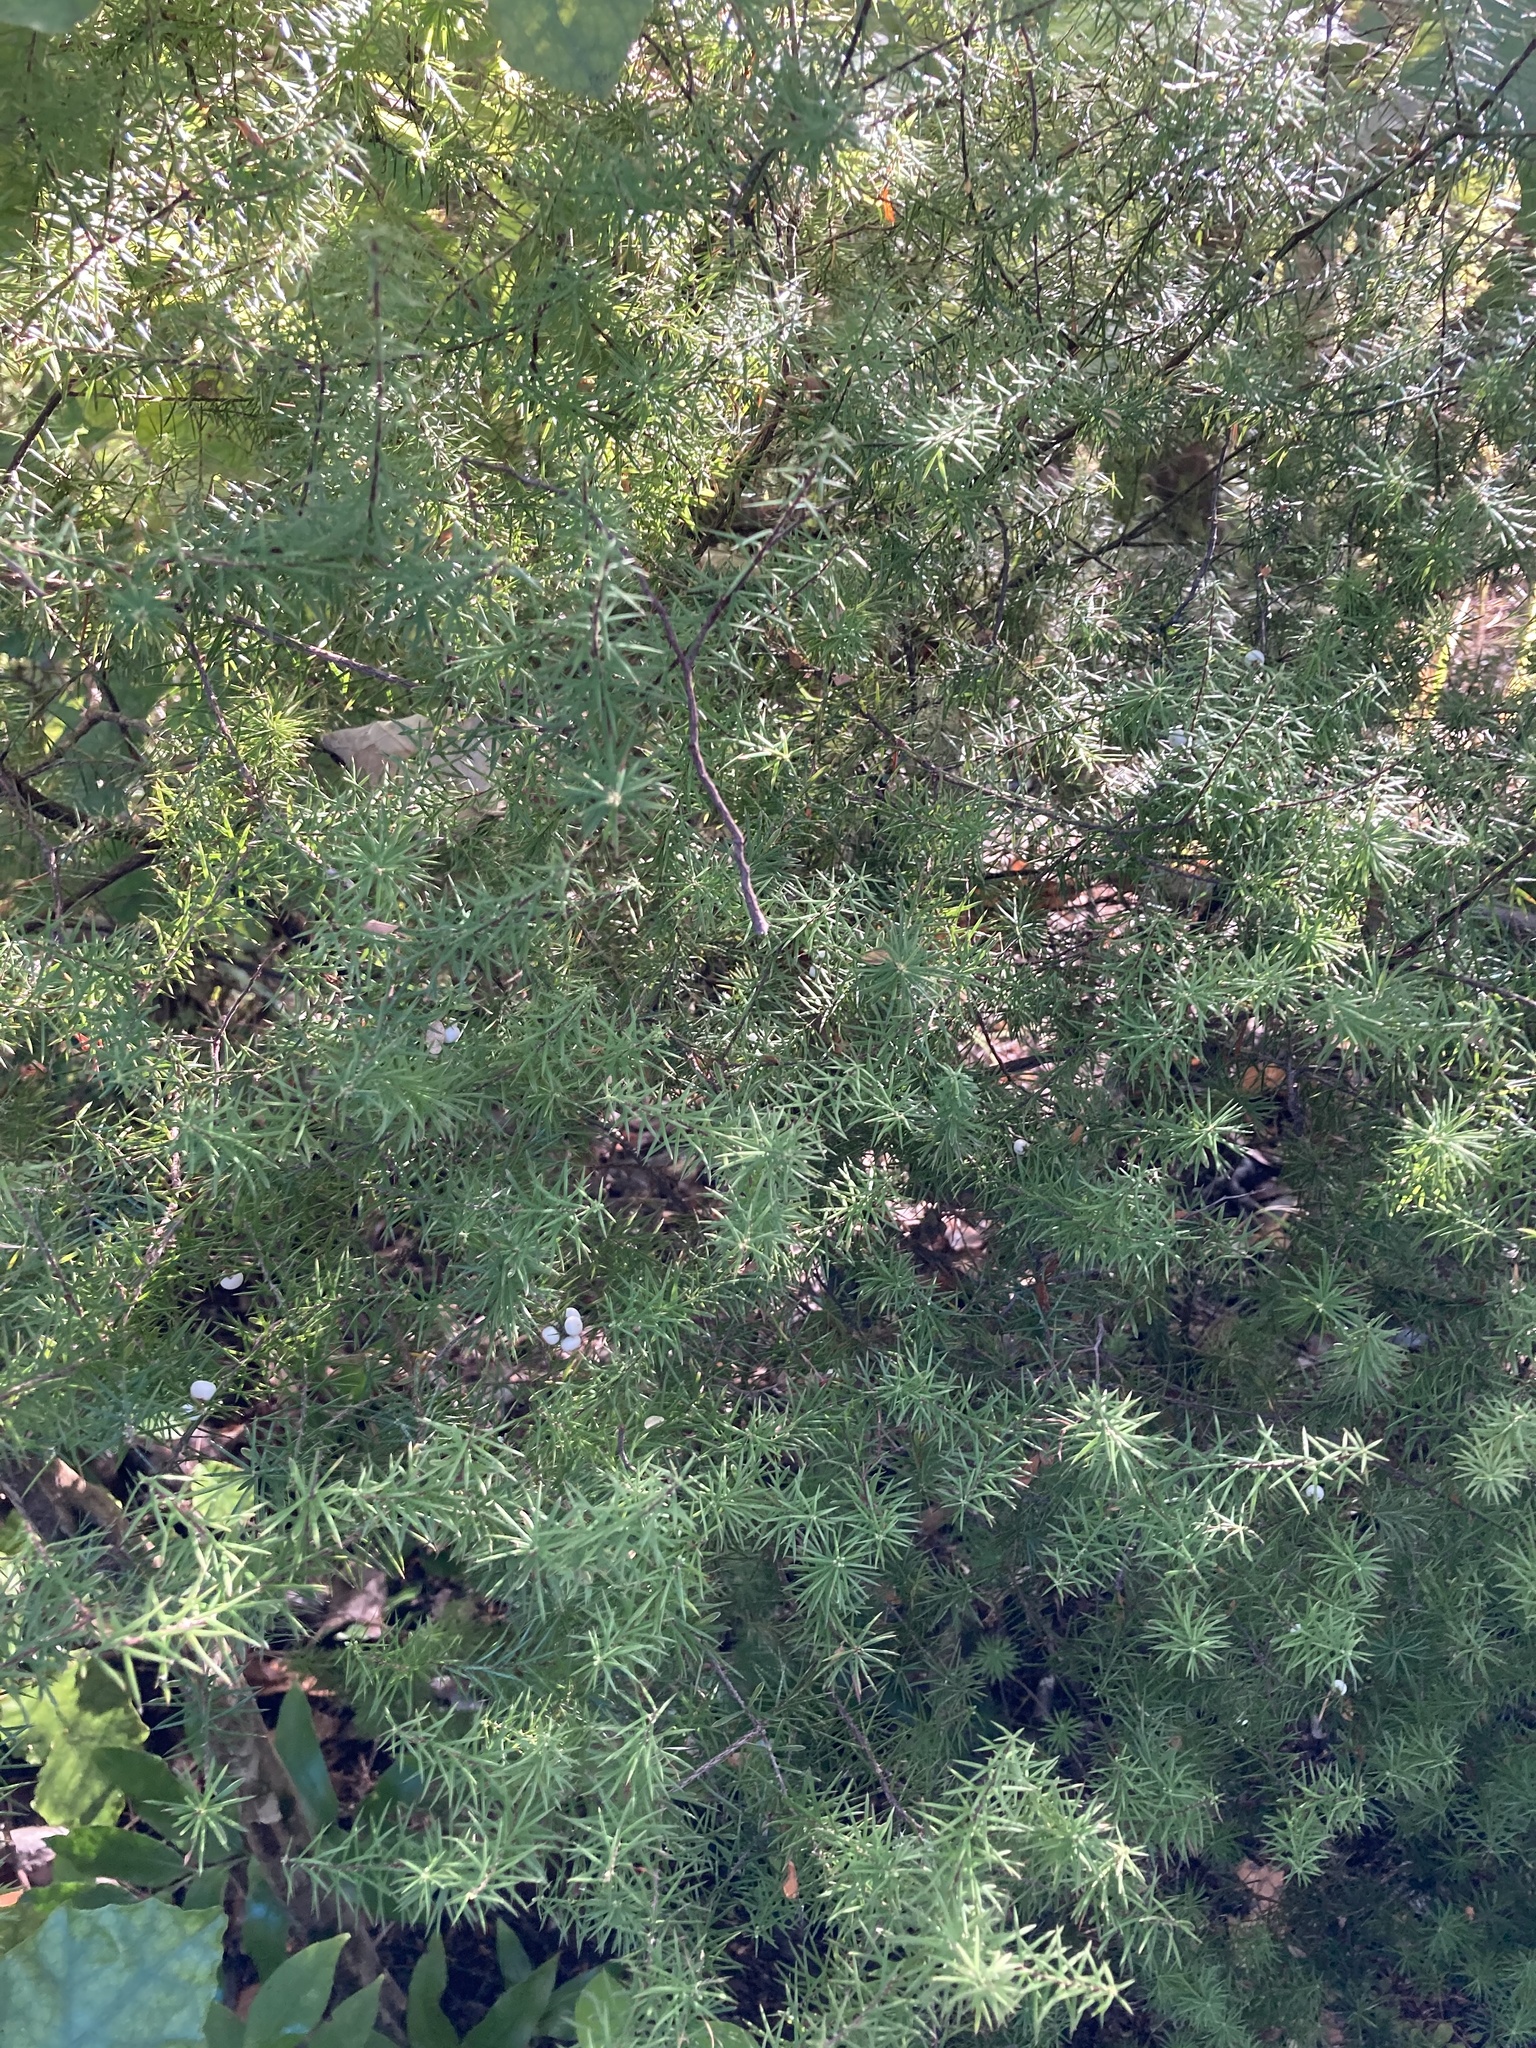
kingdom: Plantae
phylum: Tracheophyta
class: Magnoliopsida
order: Ericales
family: Ericaceae
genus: Leptecophylla
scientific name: Leptecophylla juniperina
